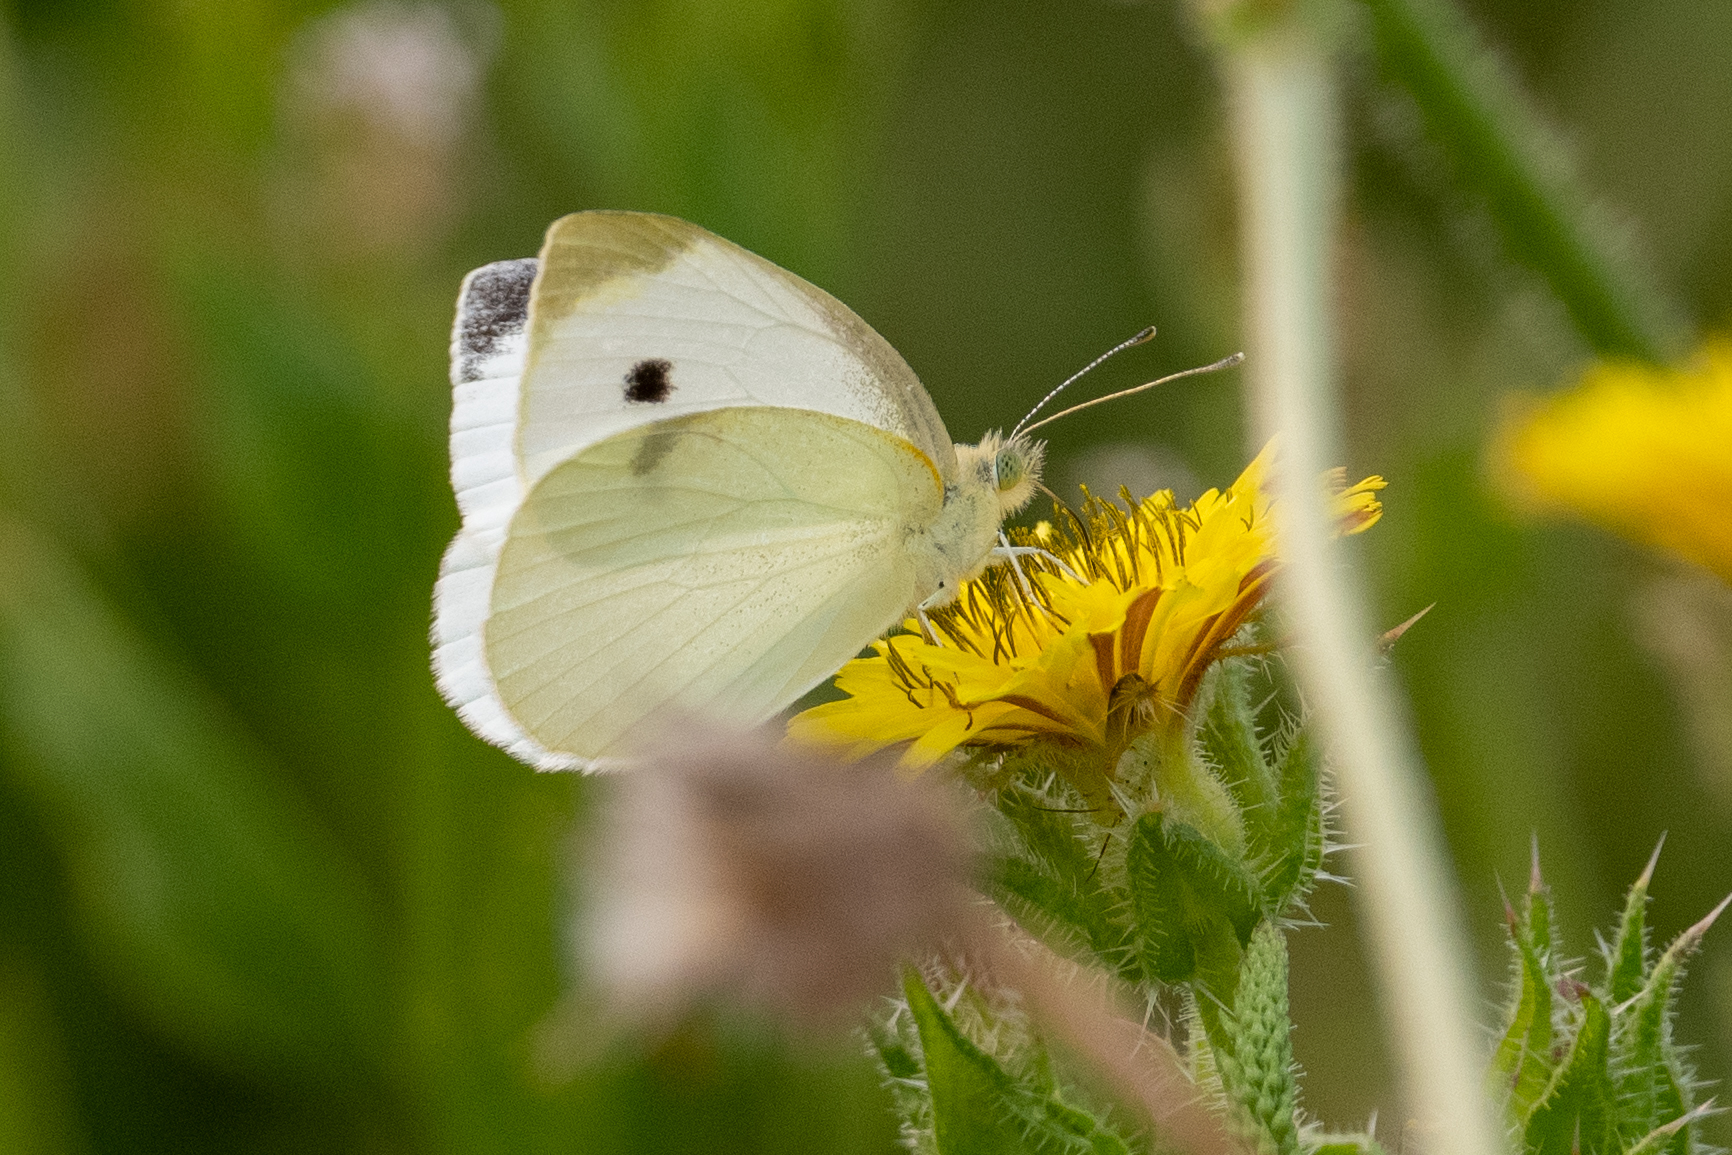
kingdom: Animalia
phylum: Arthropoda
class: Insecta
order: Lepidoptera
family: Pieridae
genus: Pieris
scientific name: Pieris rapae
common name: Small white
